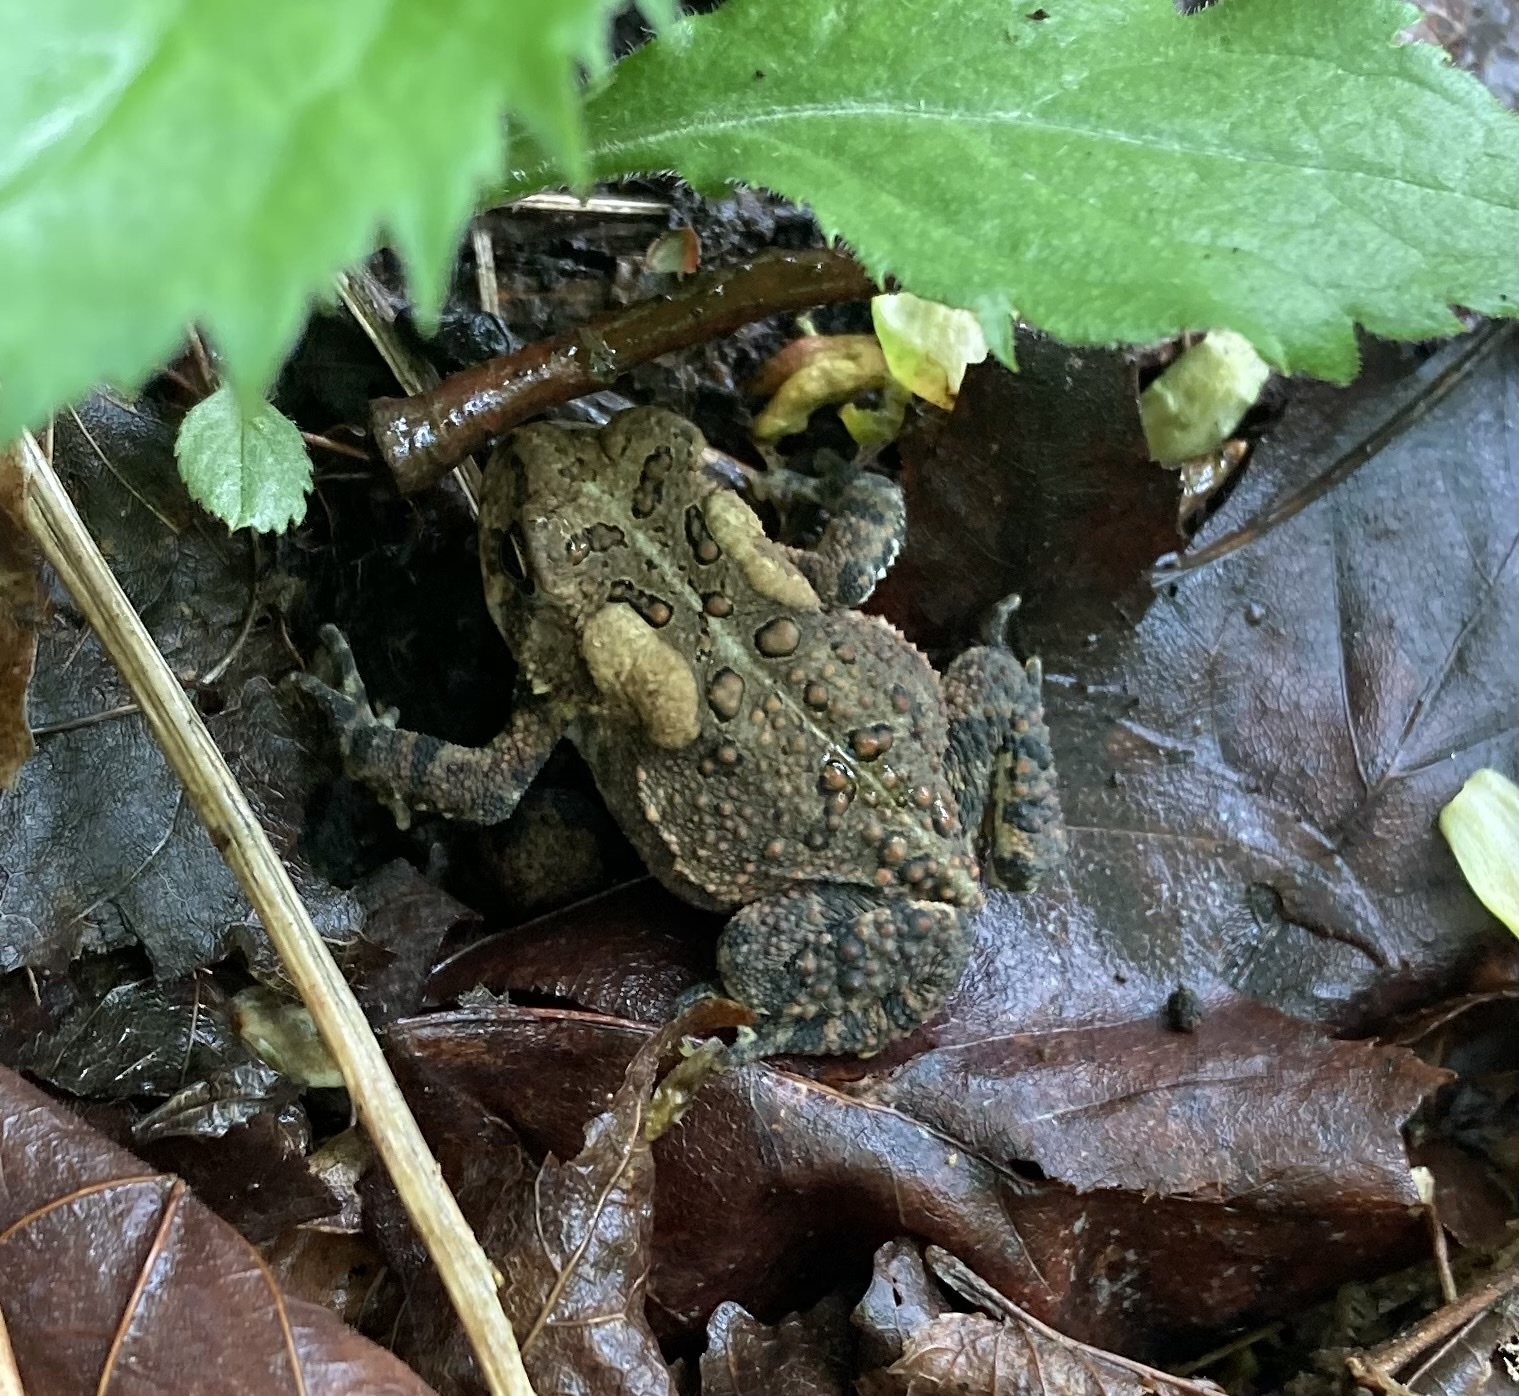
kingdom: Animalia
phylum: Chordata
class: Amphibia
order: Anura
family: Bufonidae
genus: Anaxyrus
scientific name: Anaxyrus americanus
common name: American toad
